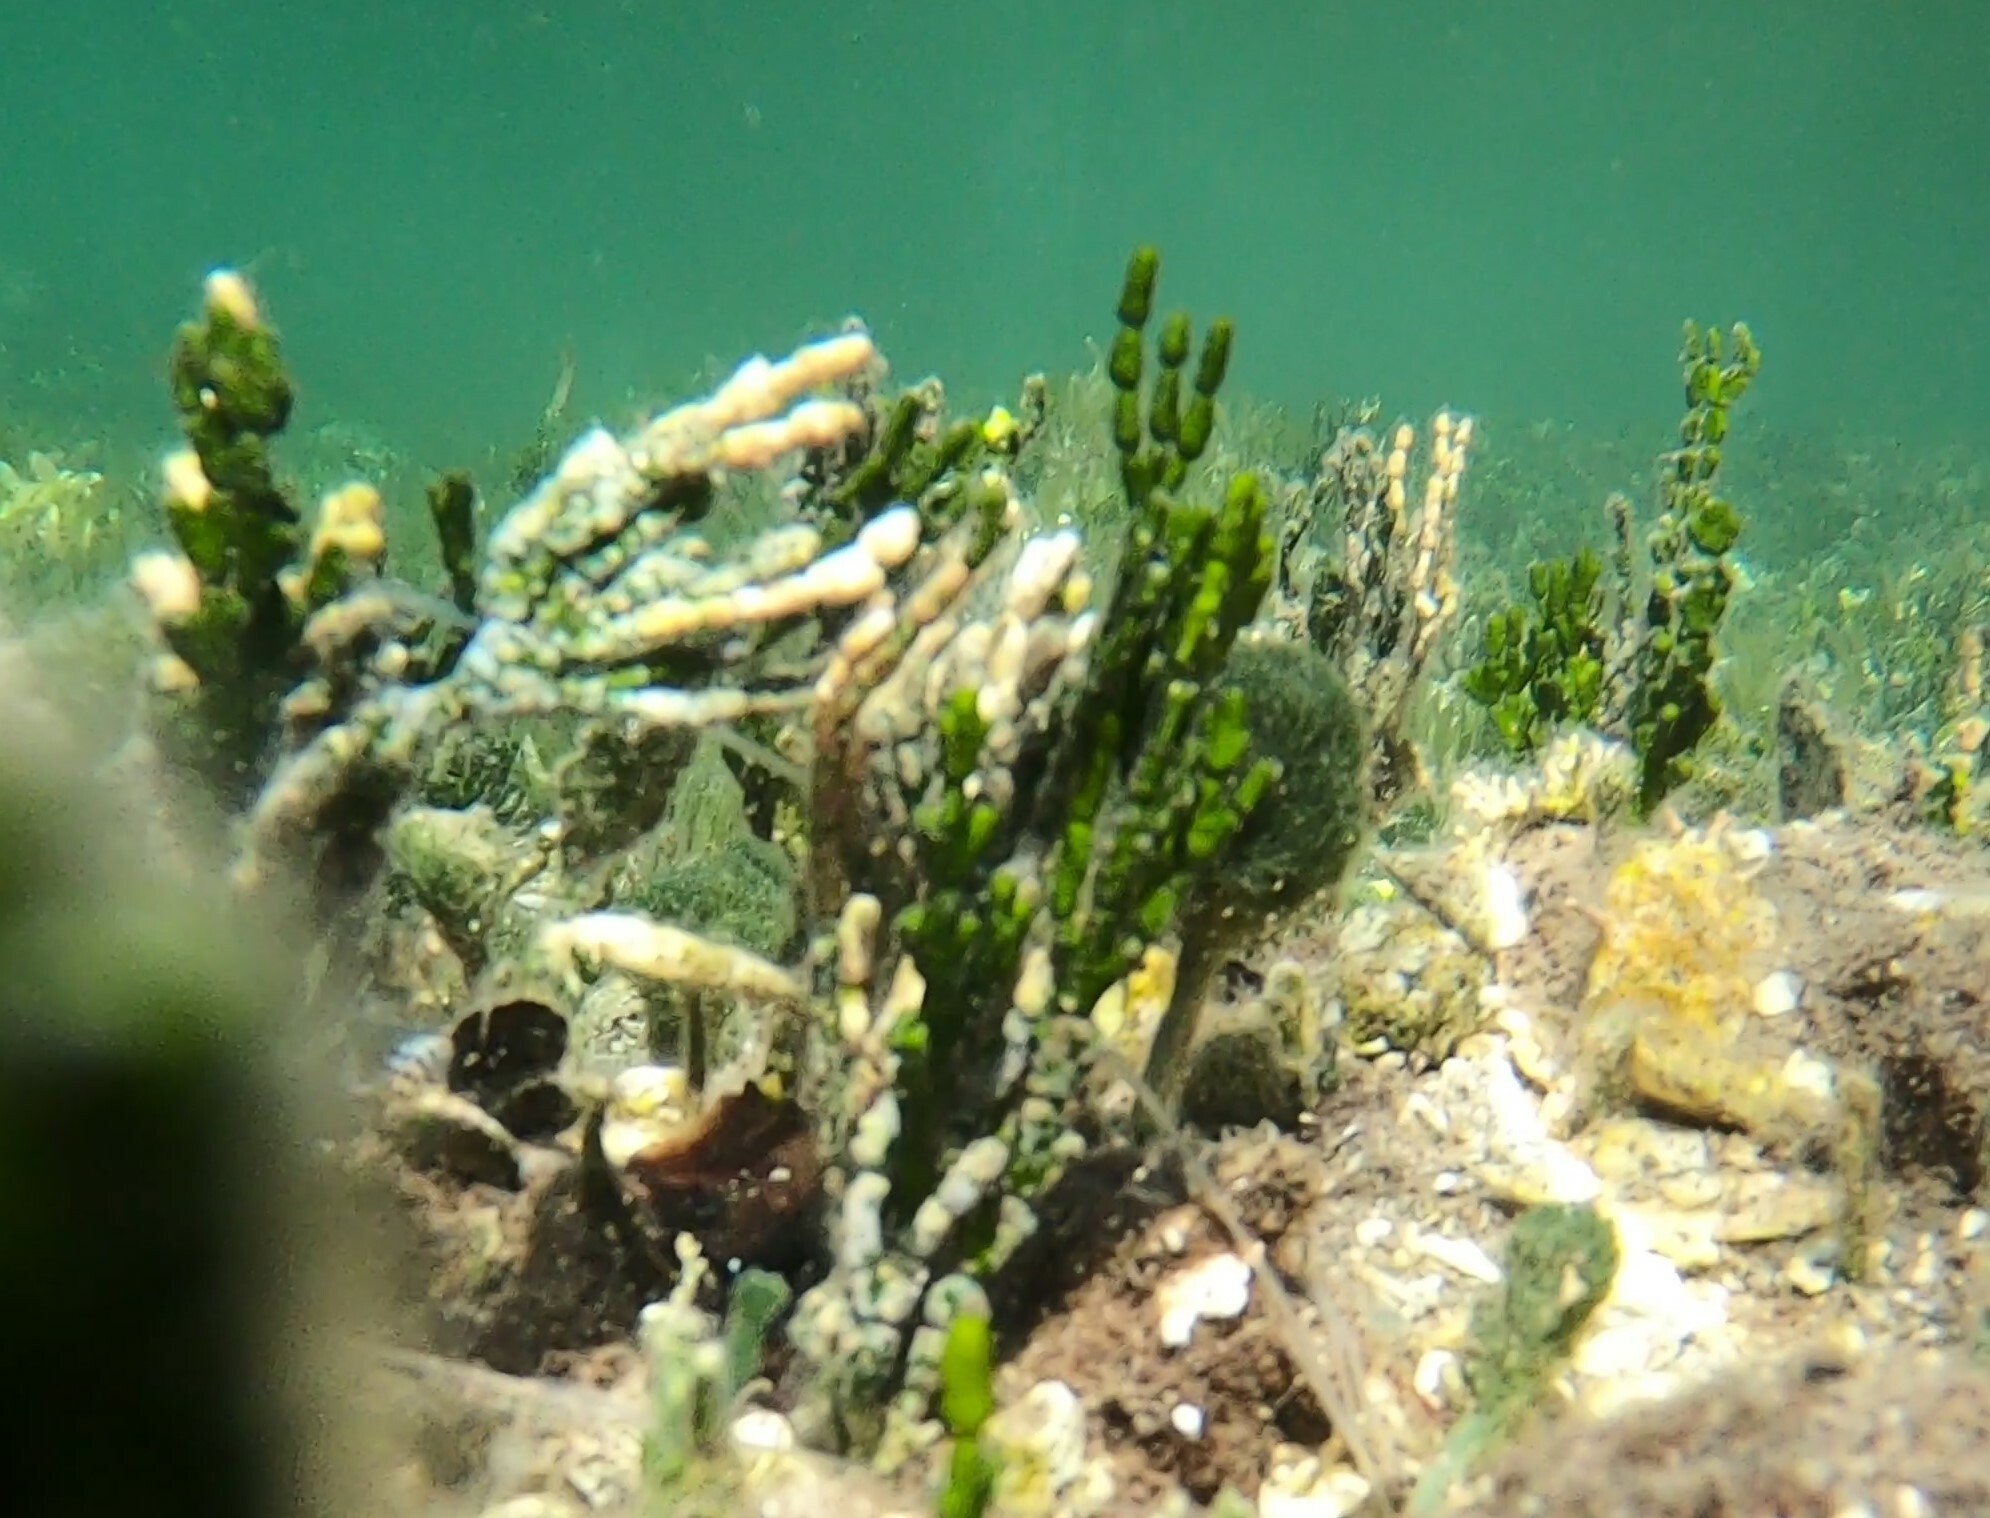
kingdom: Plantae
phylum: Chlorophyta
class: Ulvophyceae
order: Bryopsidales
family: Halimedaceae
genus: Halimeda
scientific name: Halimeda incrassata
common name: Three finger leaf algae
